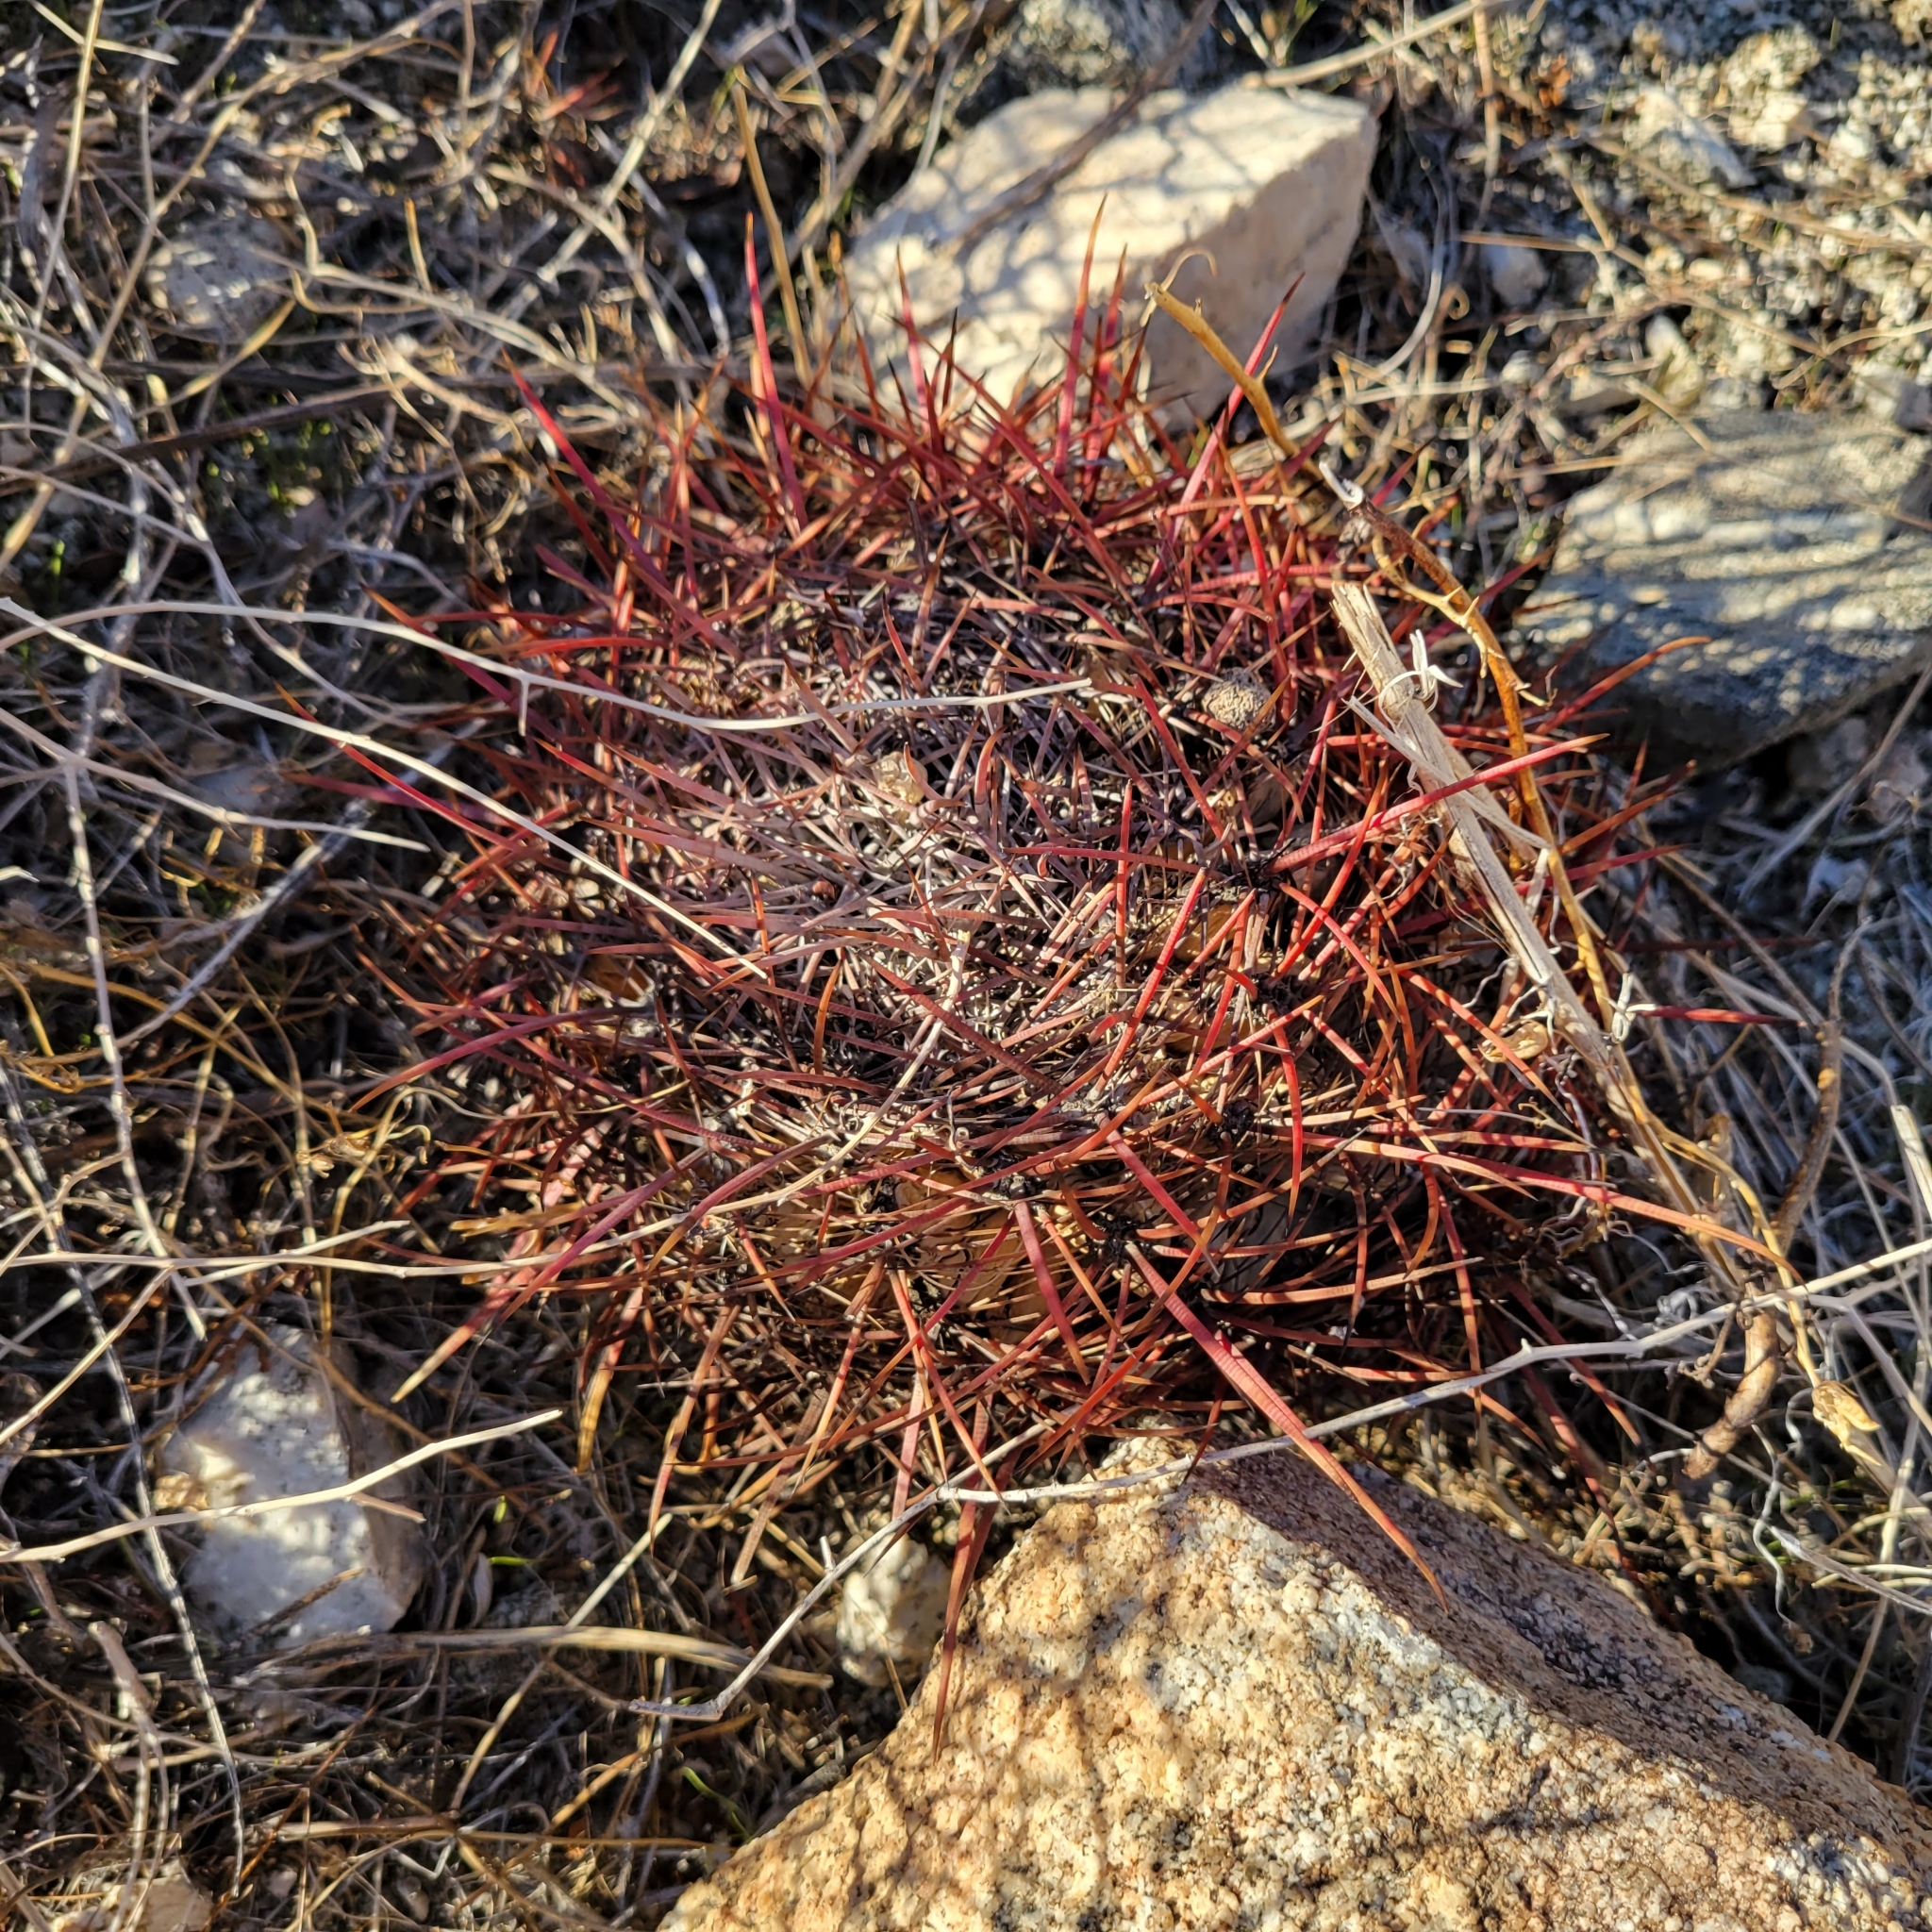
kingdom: Plantae
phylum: Tracheophyta
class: Magnoliopsida
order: Caryophyllales
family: Cactaceae
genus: Ferocactus
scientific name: Ferocactus cylindraceus
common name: California barrel cactus
